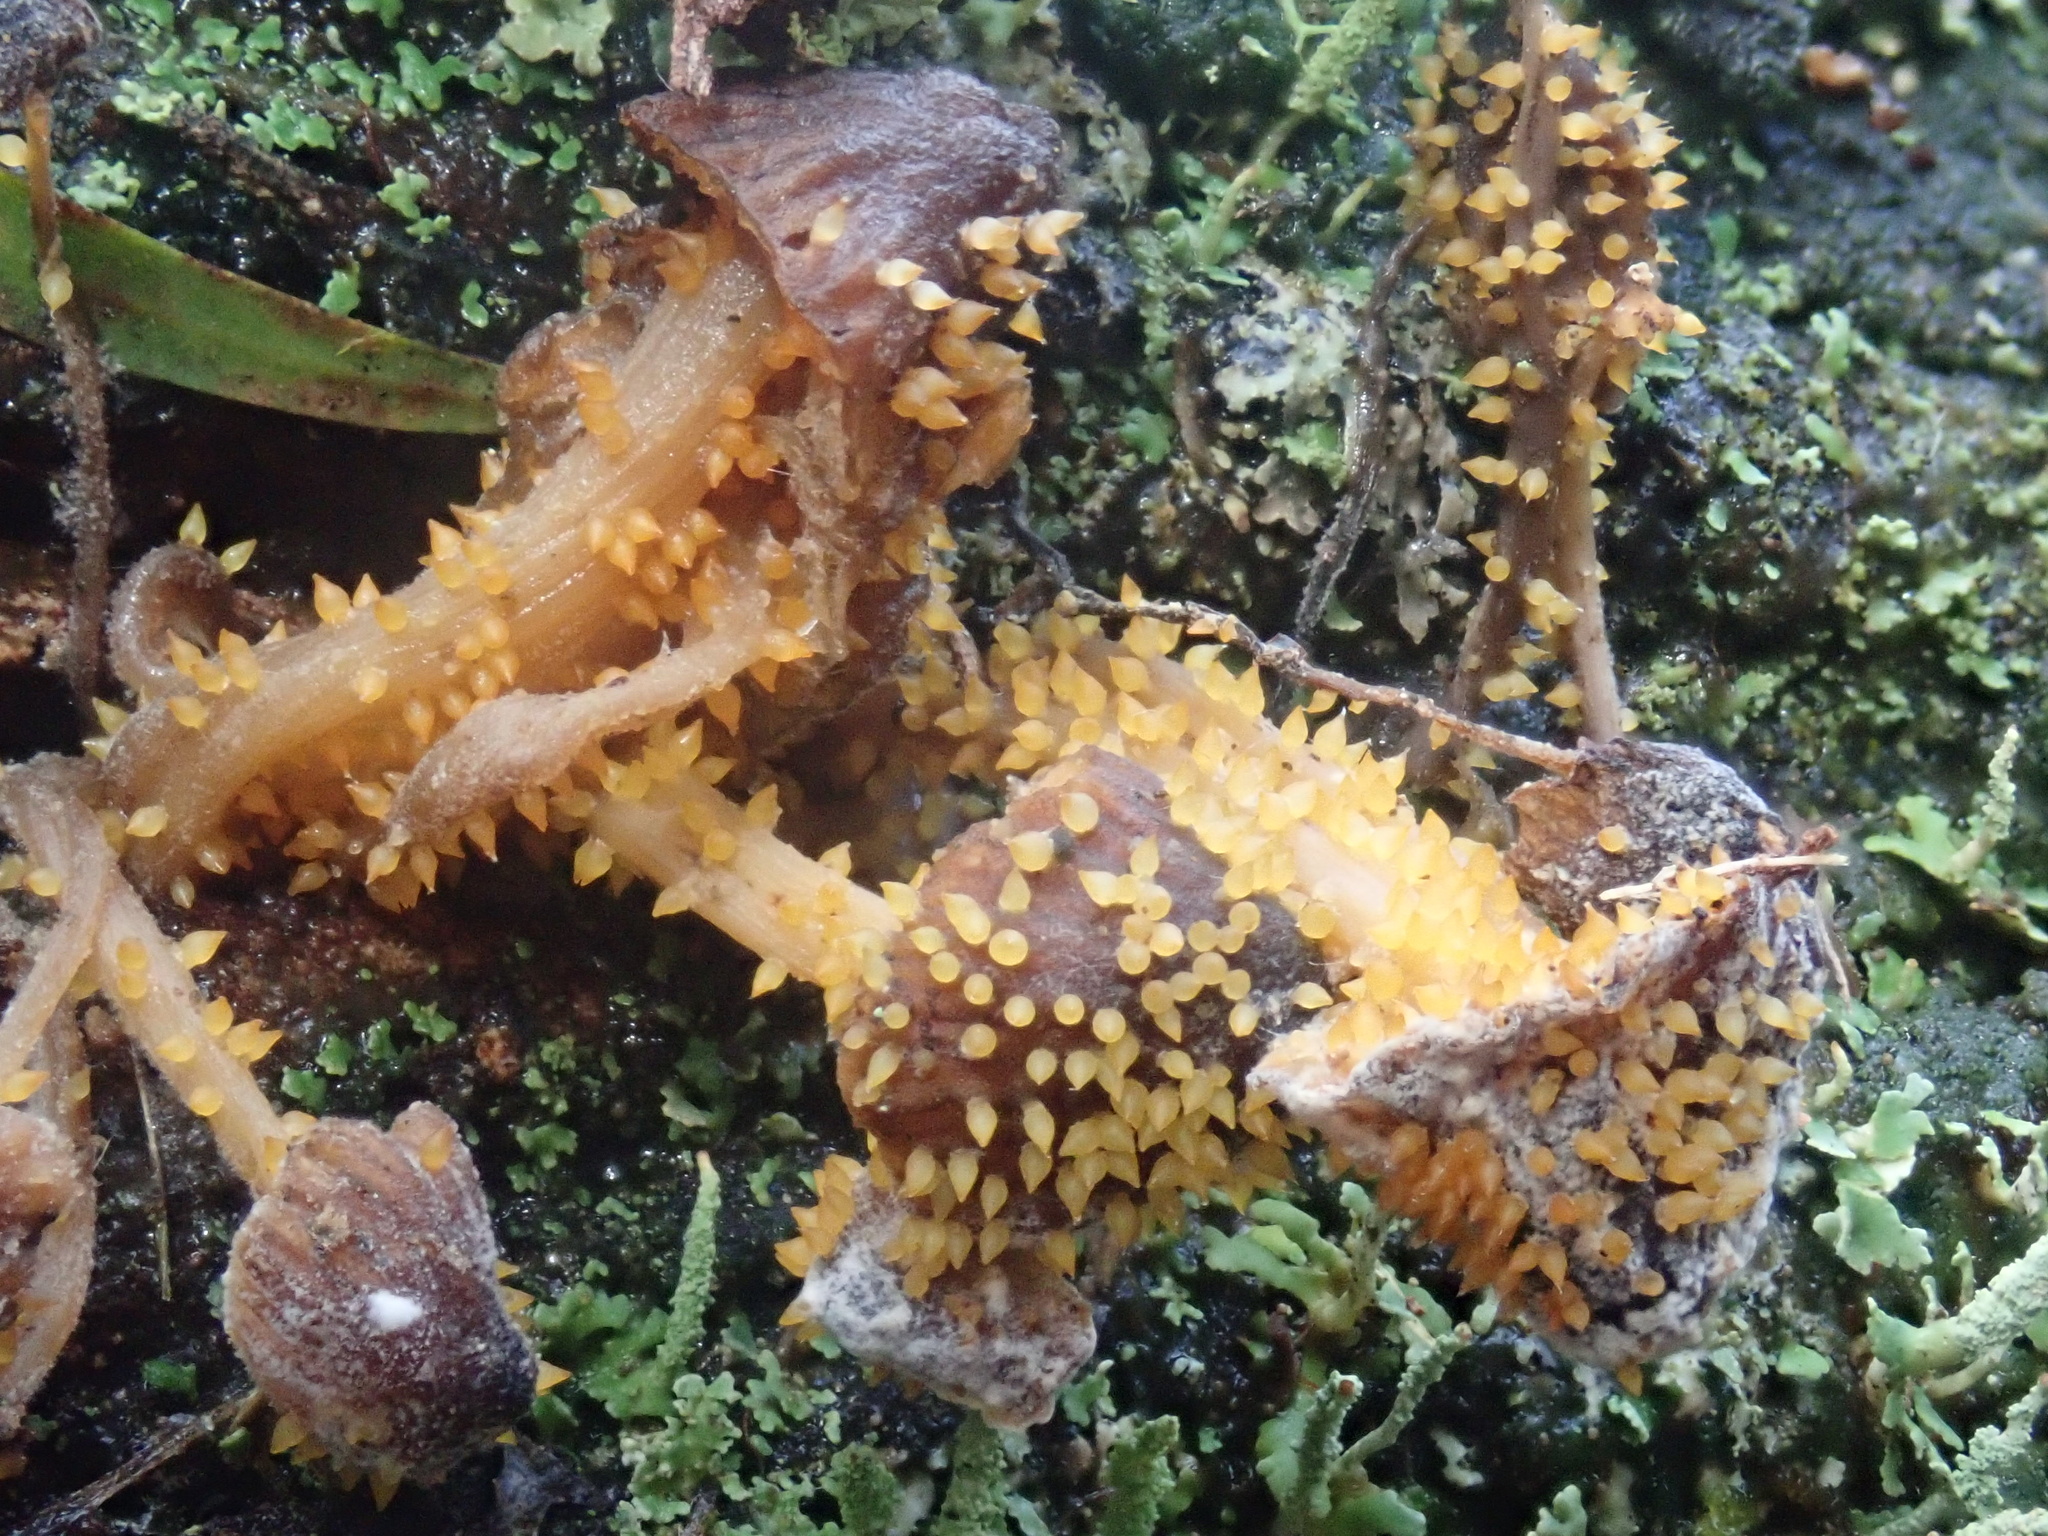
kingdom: Fungi
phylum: Ascomycota
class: Sordariomycetes
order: Hypocreales
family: Clavicipitaceae
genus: Neobarya
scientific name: Neobarya agaricicola
